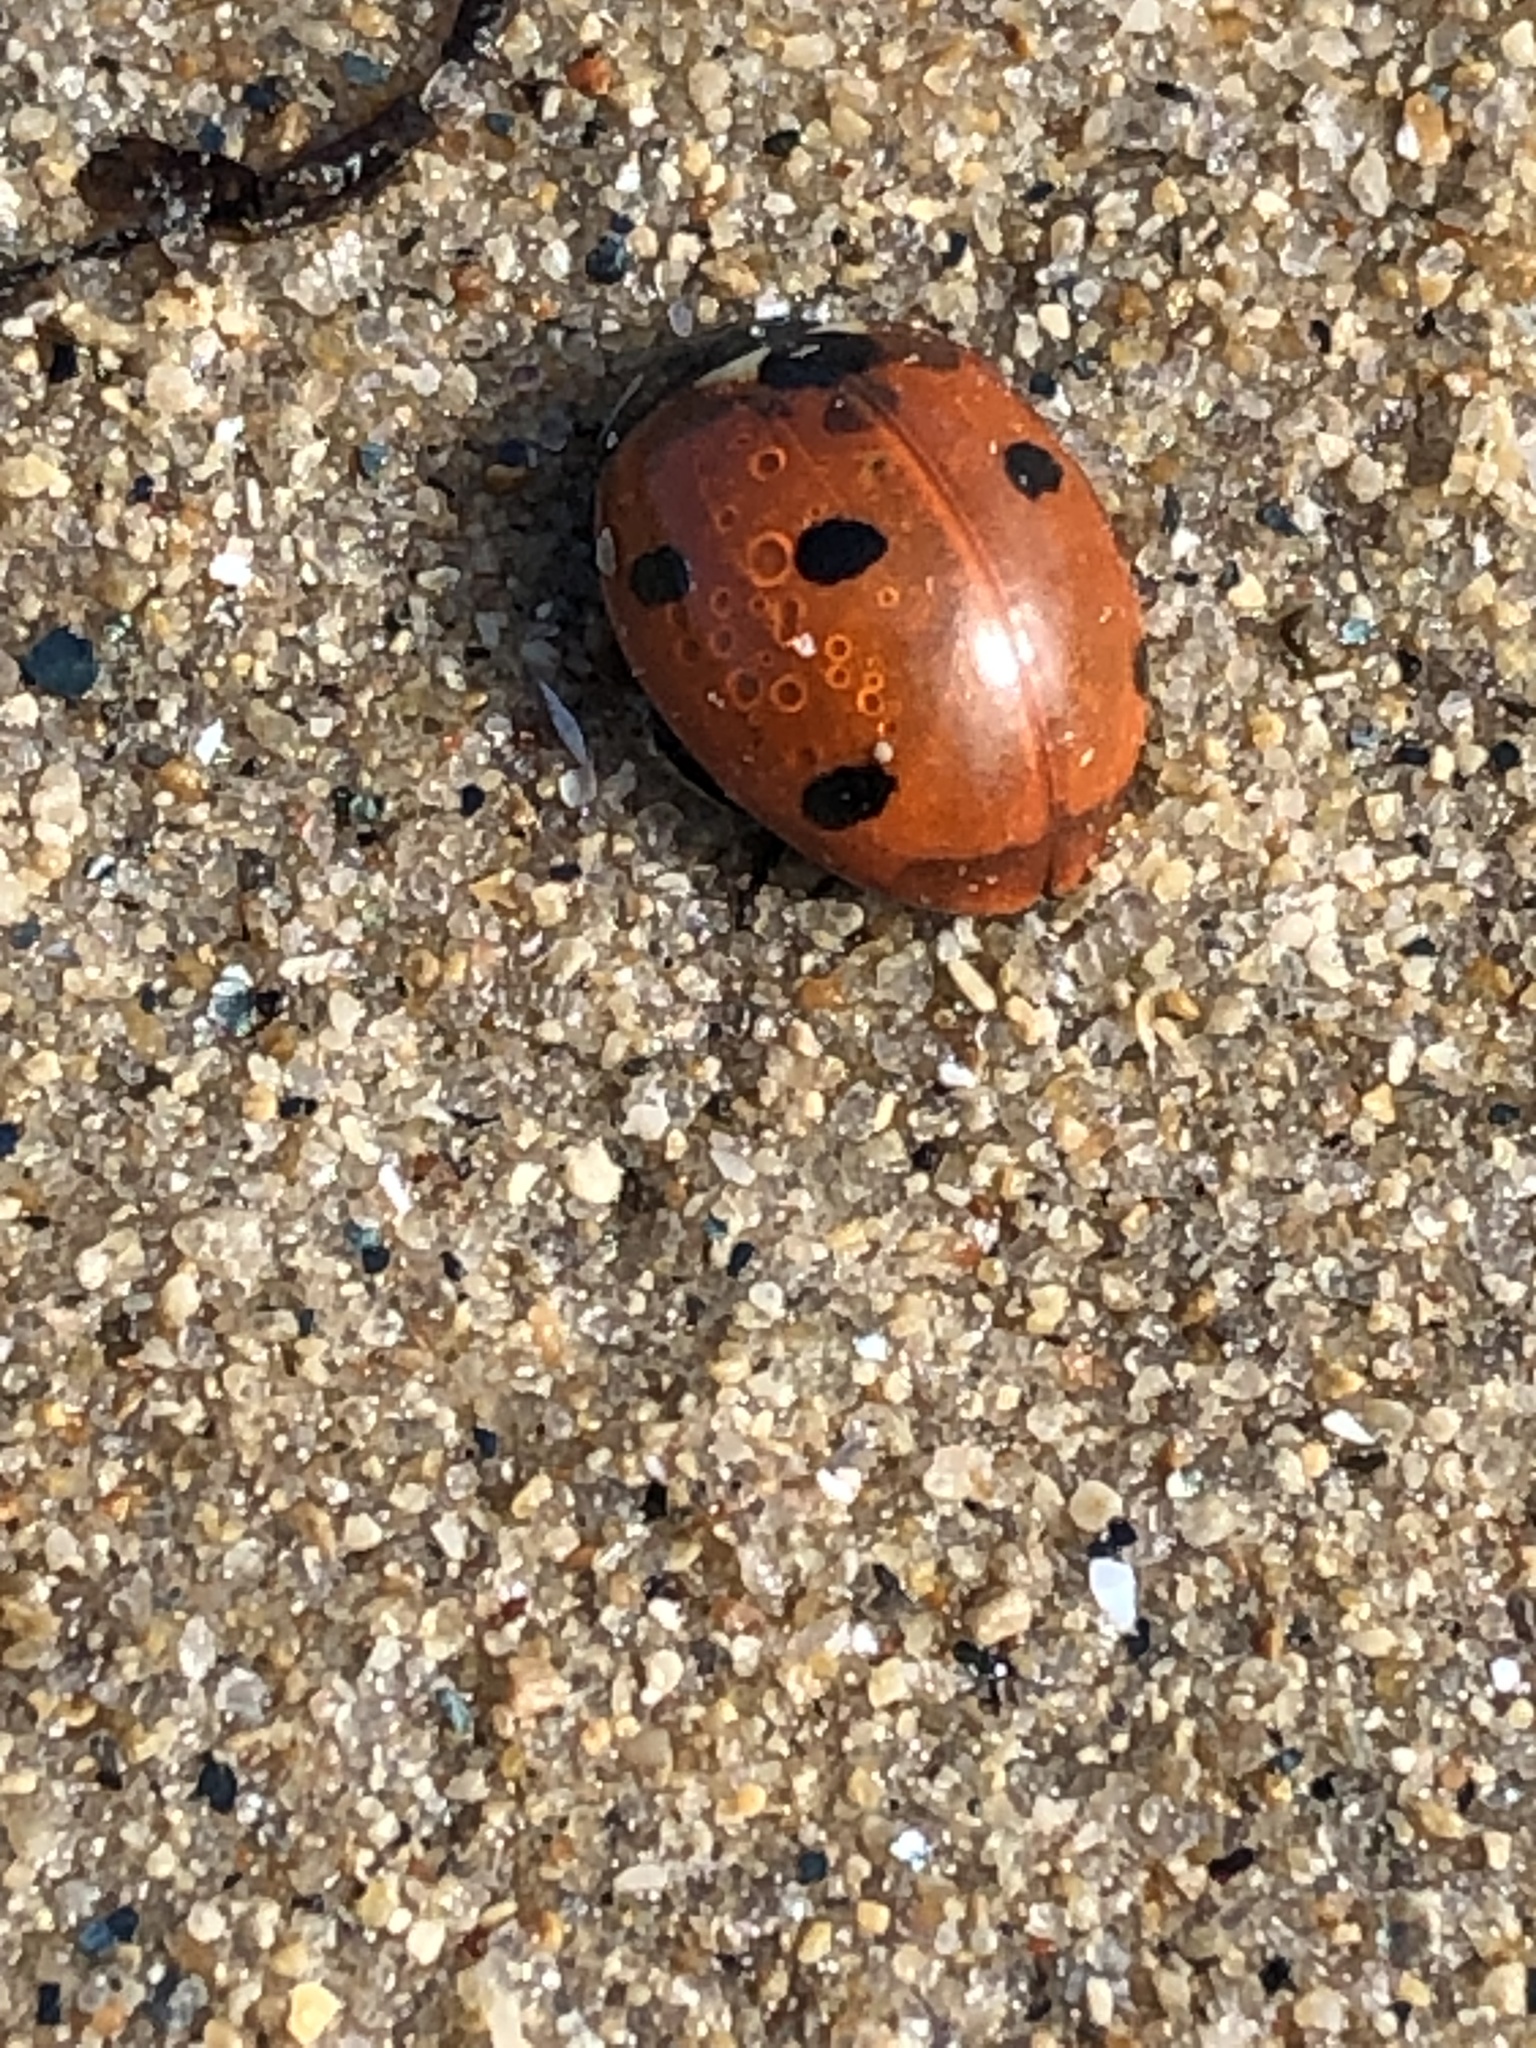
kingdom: Animalia
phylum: Arthropoda
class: Insecta
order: Coleoptera
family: Coccinellidae
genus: Coccinella
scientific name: Coccinella septempunctata
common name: Sevenspotted lady beetle
